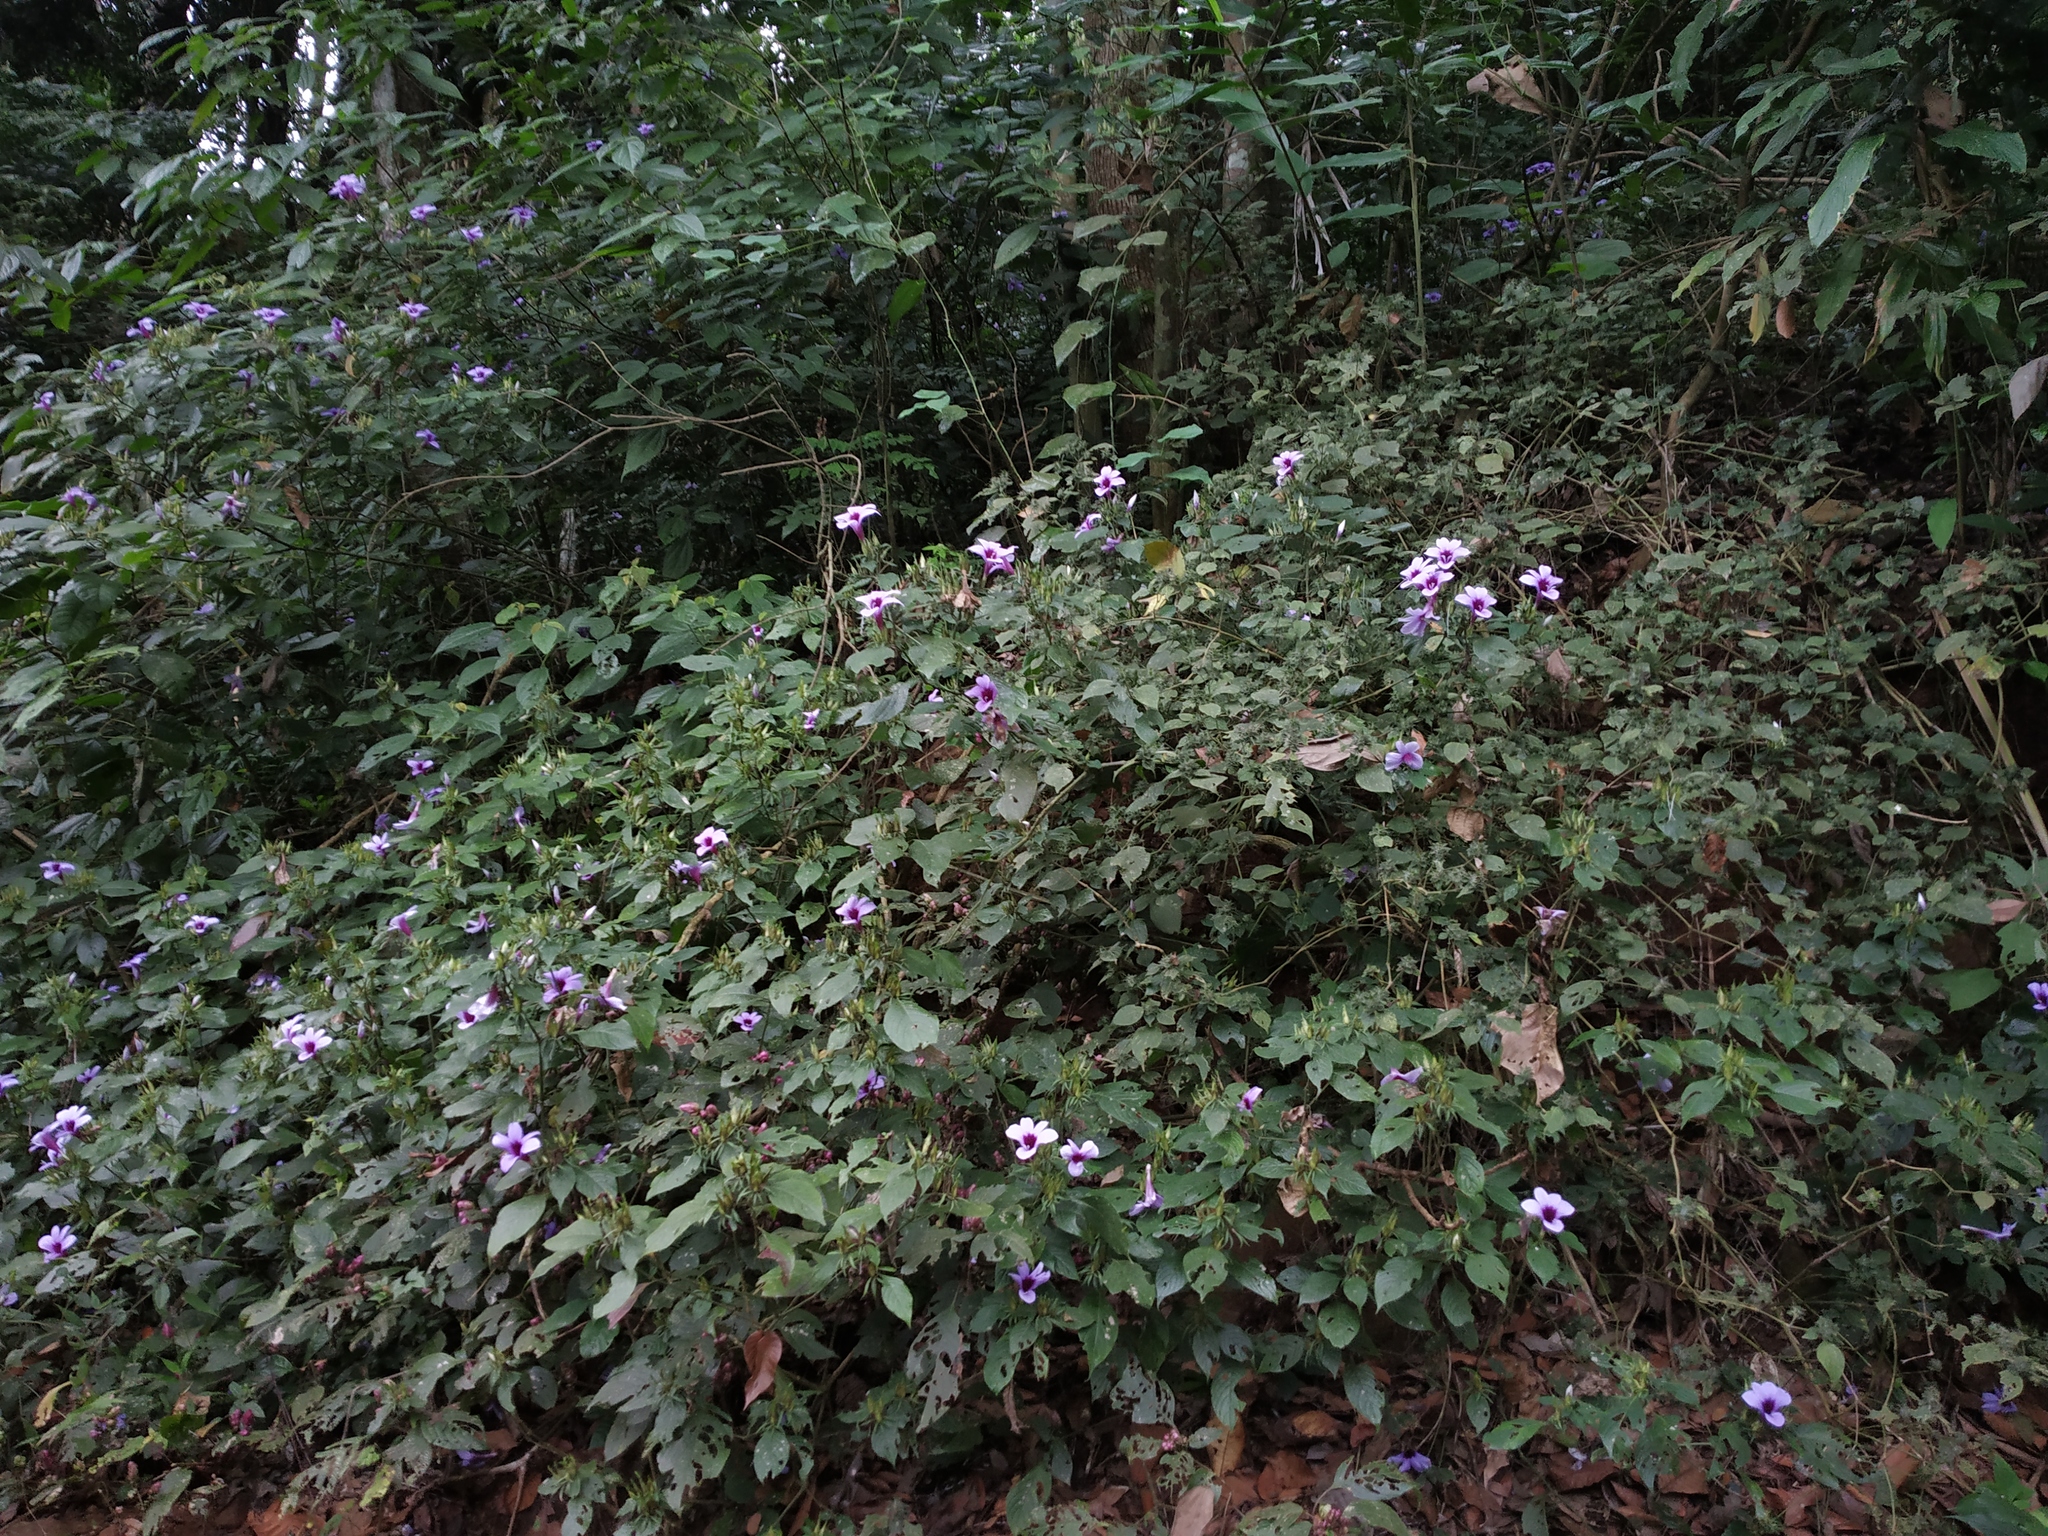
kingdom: Plantae
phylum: Tracheophyta
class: Magnoliopsida
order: Lamiales
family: Acanthaceae
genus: Barleria
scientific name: Barleria involucrata
